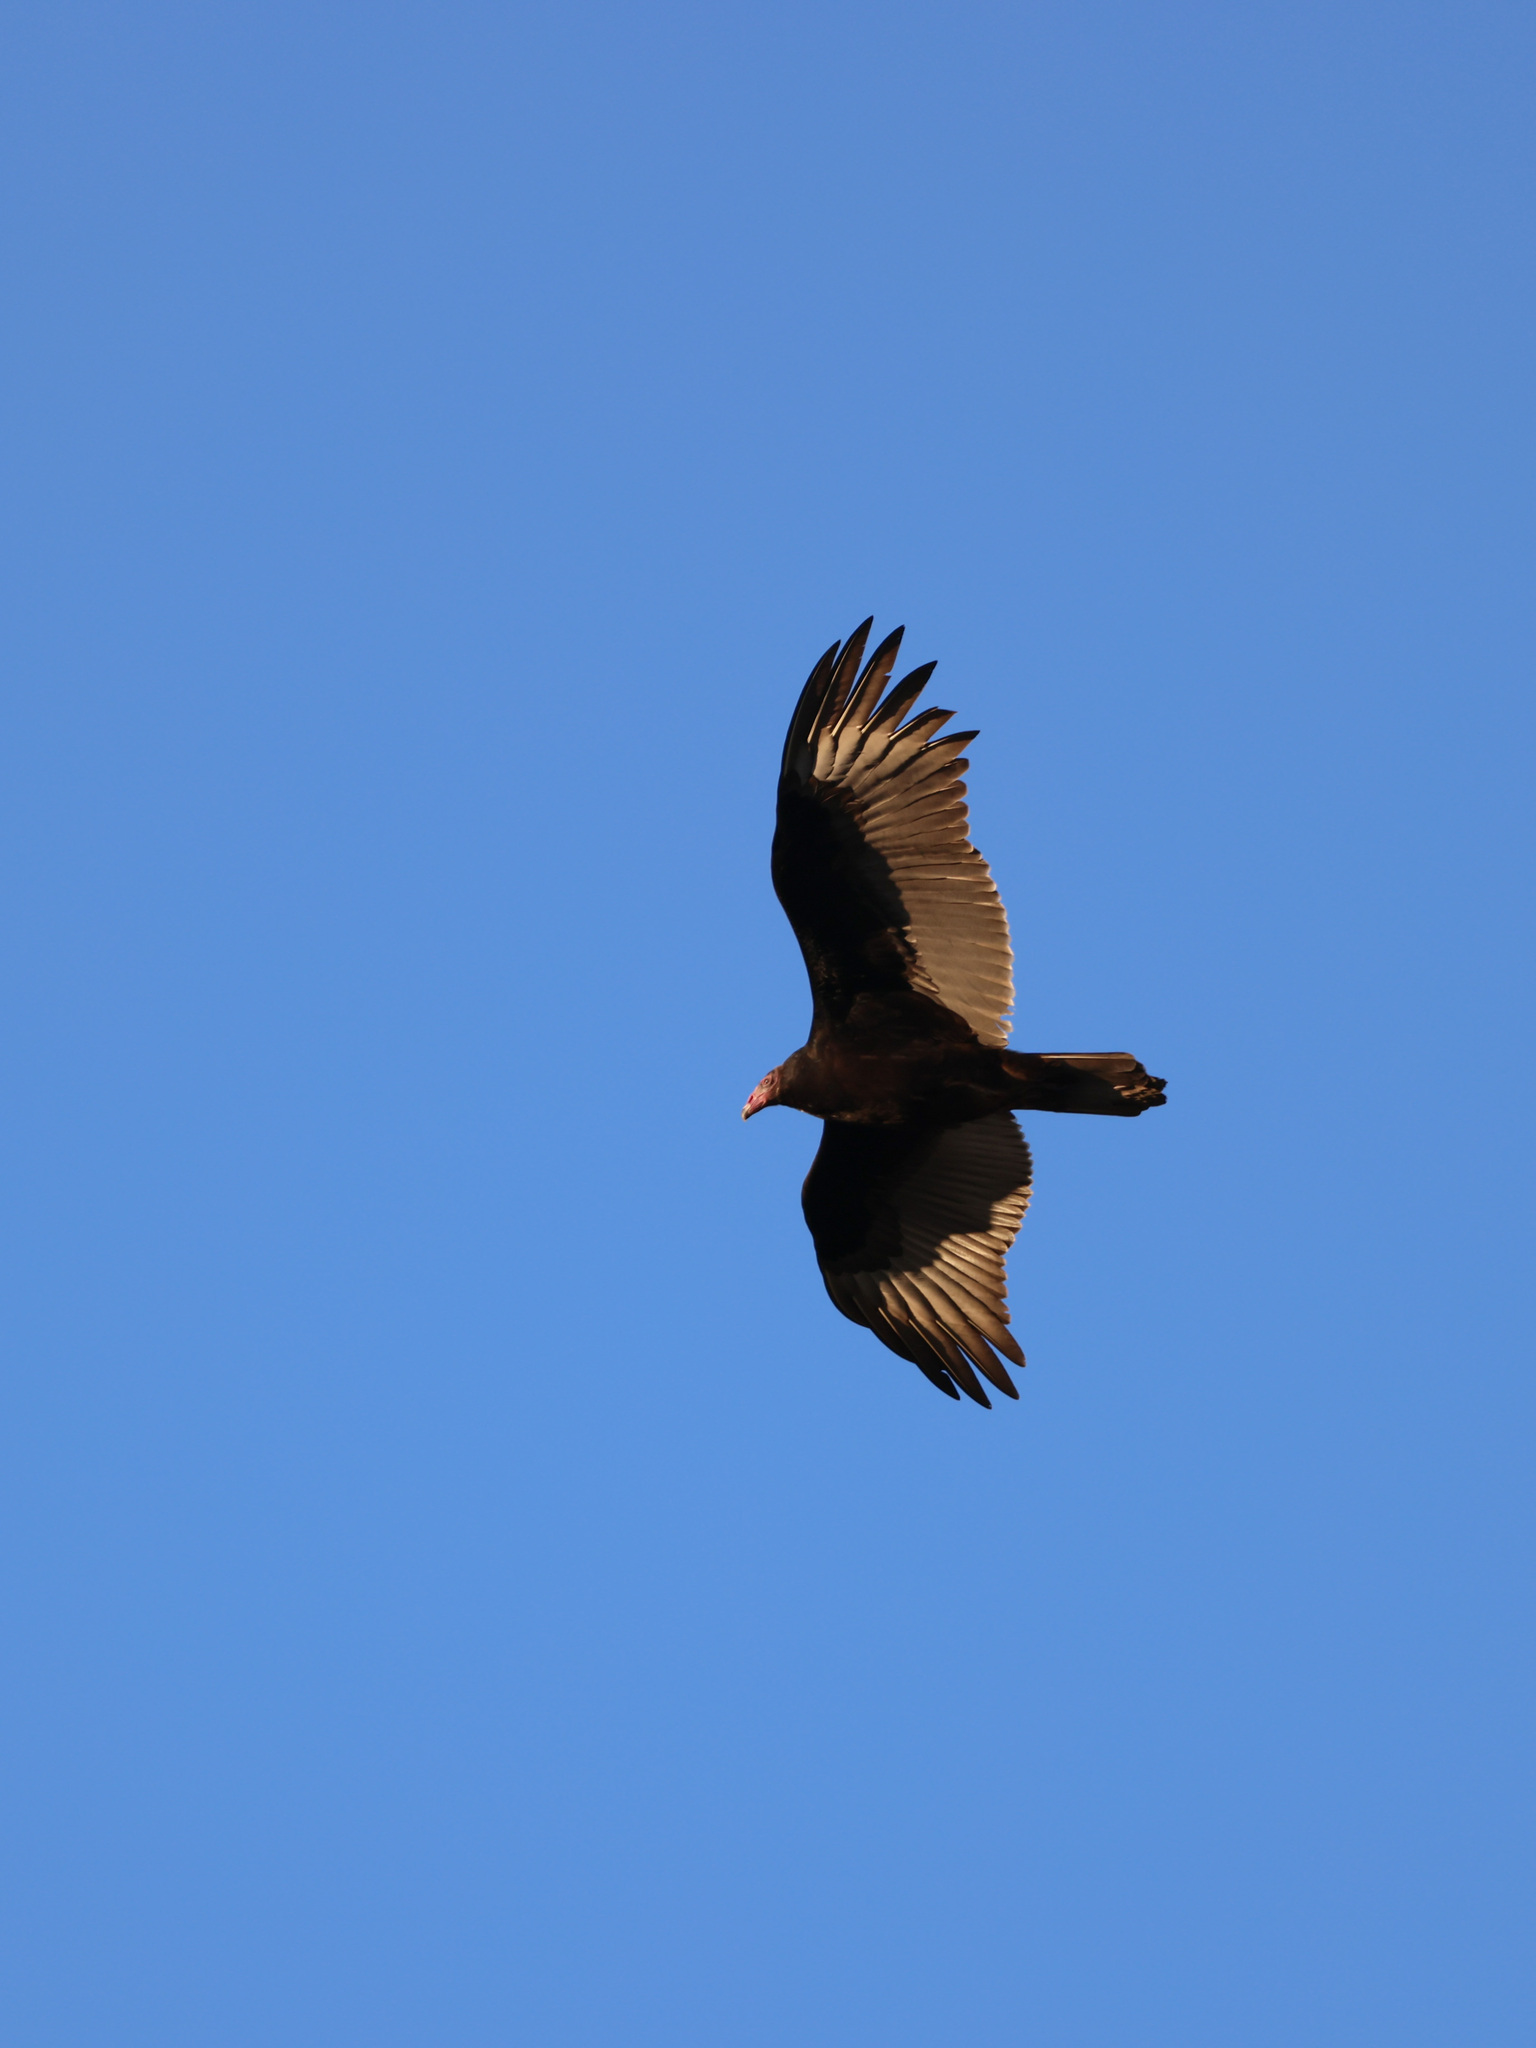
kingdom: Animalia
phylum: Chordata
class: Aves
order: Accipitriformes
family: Cathartidae
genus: Cathartes
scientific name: Cathartes aura
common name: Turkey vulture
